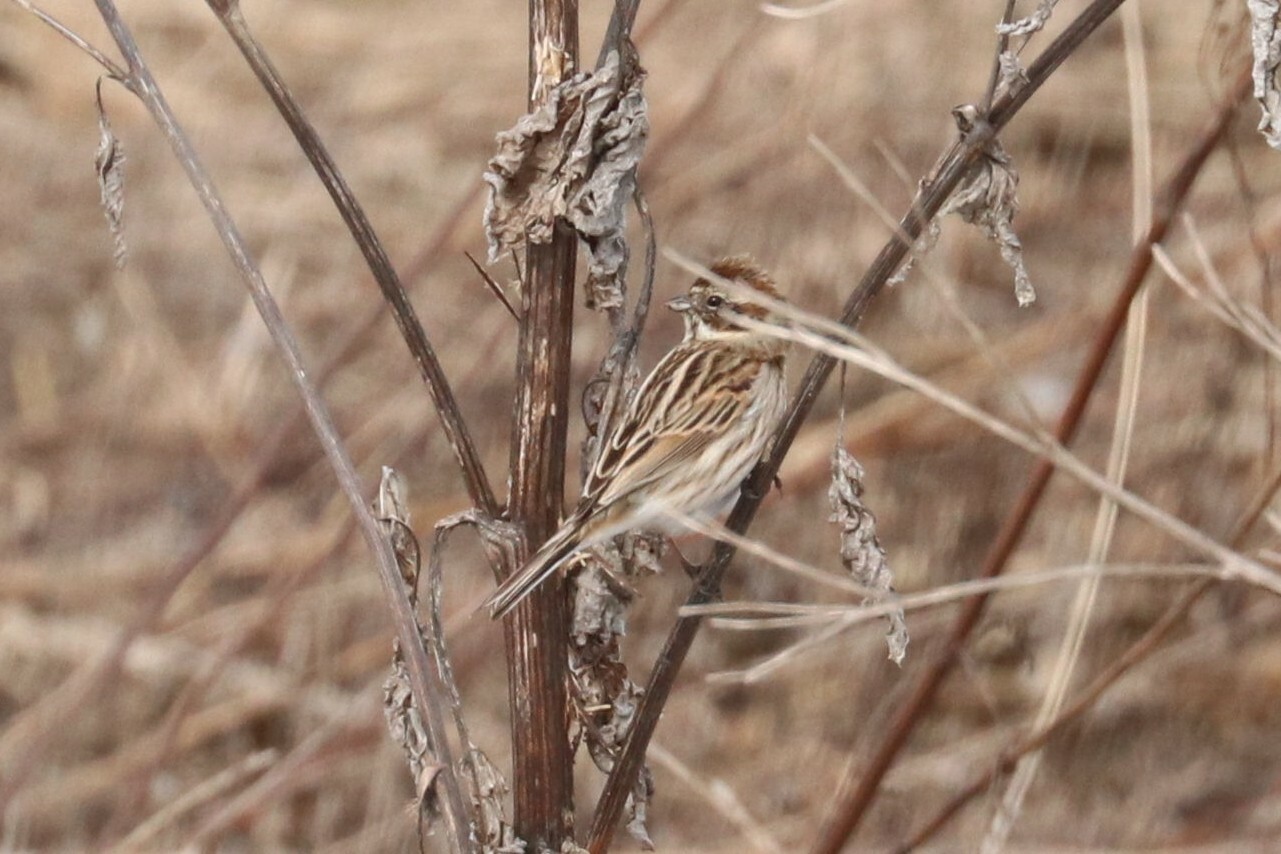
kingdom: Animalia
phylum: Chordata
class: Aves
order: Passeriformes
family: Emberizidae
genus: Emberiza
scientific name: Emberiza schoeniclus
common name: Reed bunting
